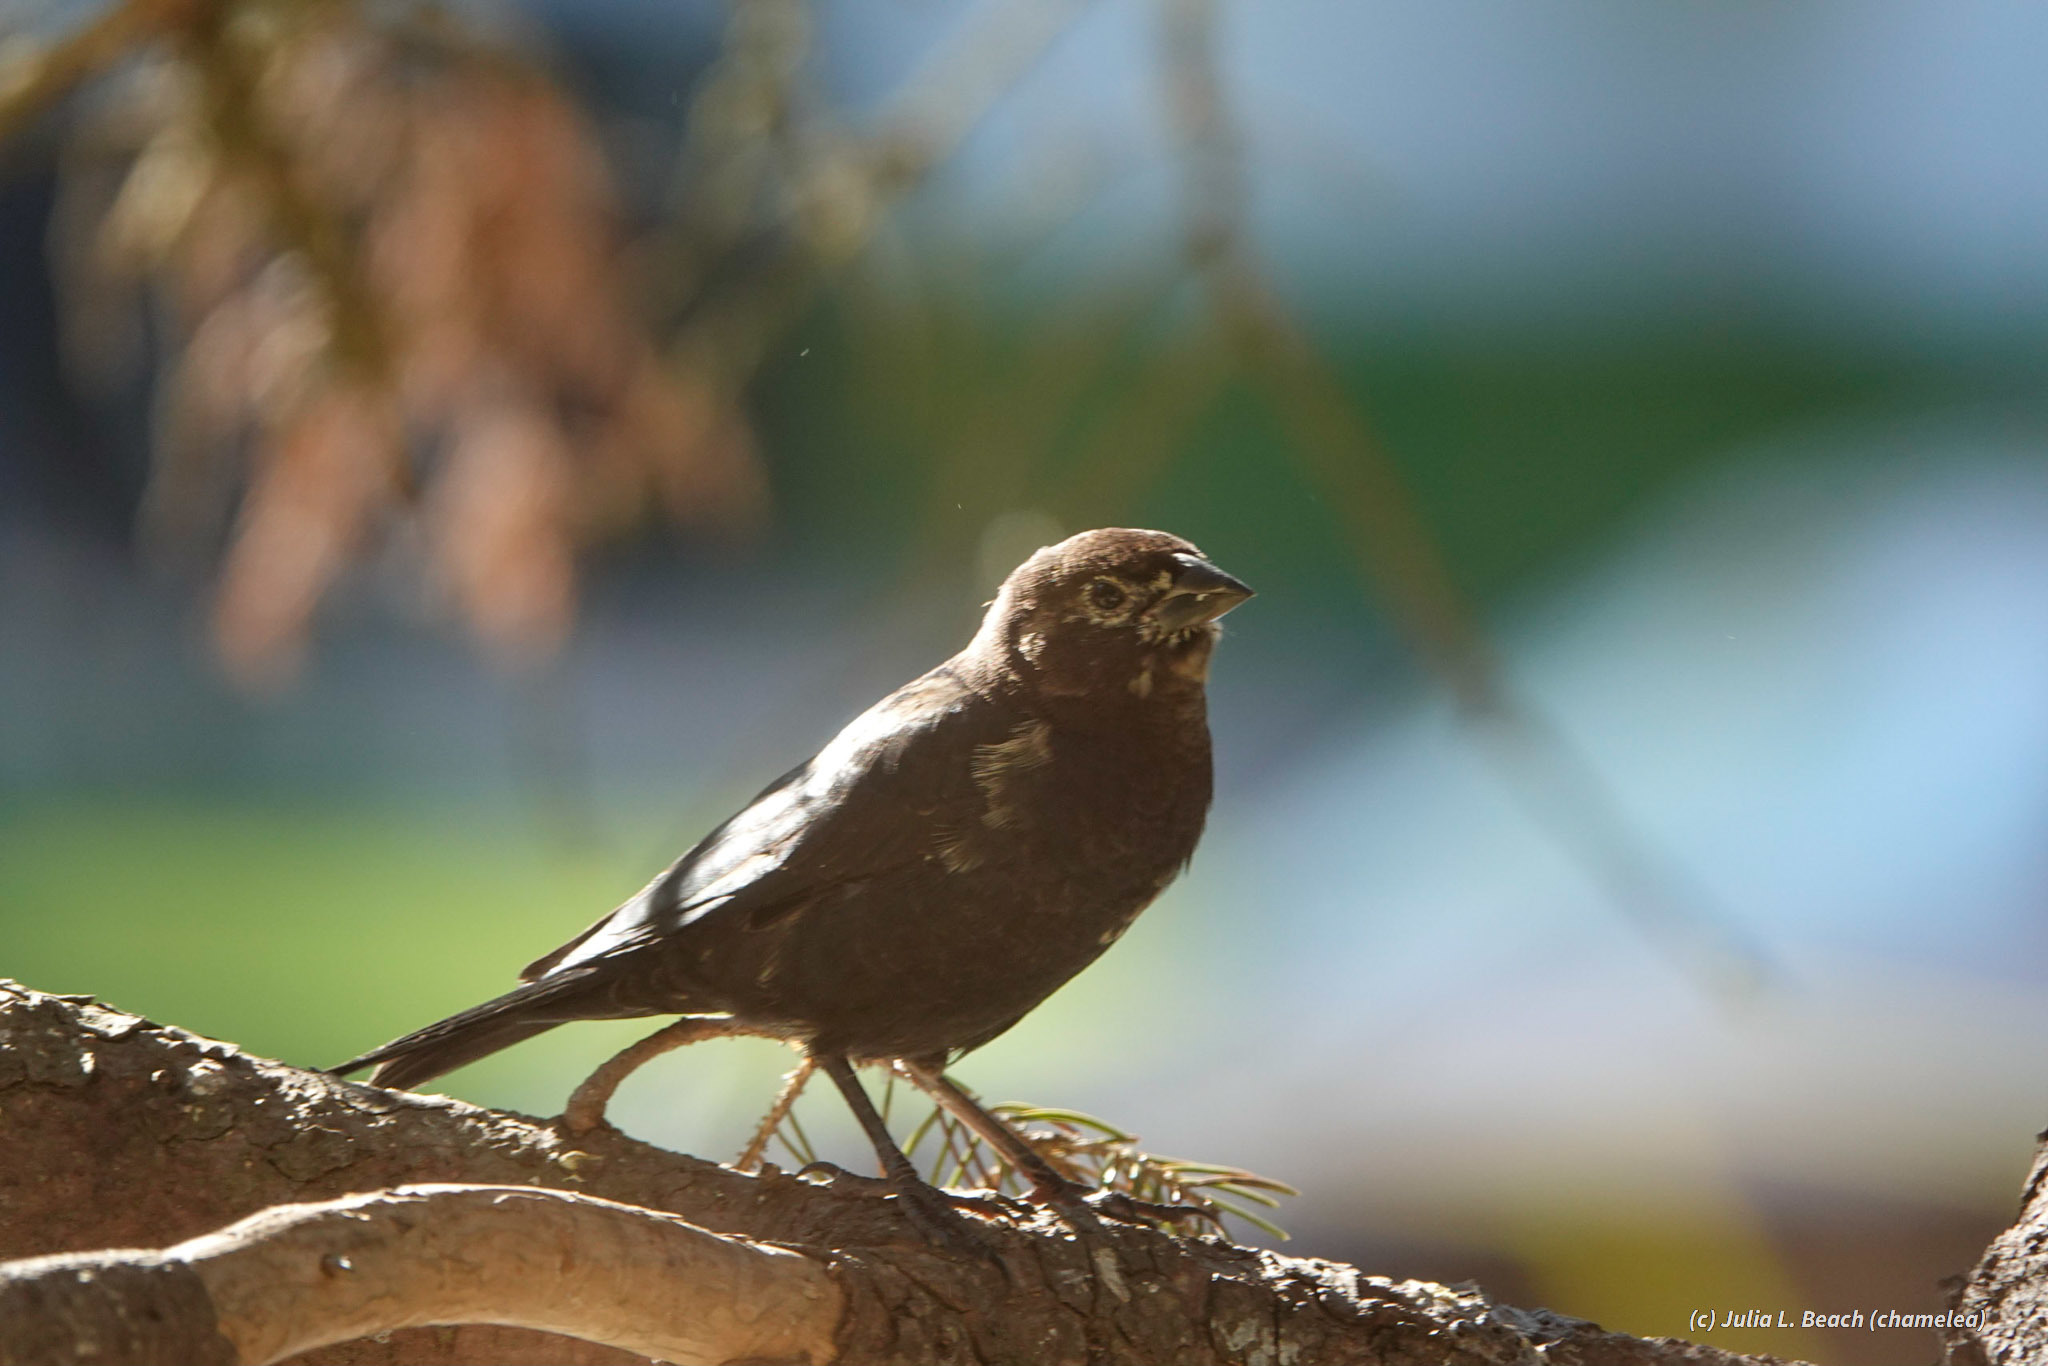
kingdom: Animalia
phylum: Chordata
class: Aves
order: Passeriformes
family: Icteridae
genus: Molothrus
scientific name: Molothrus ater
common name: Brown-headed cowbird
